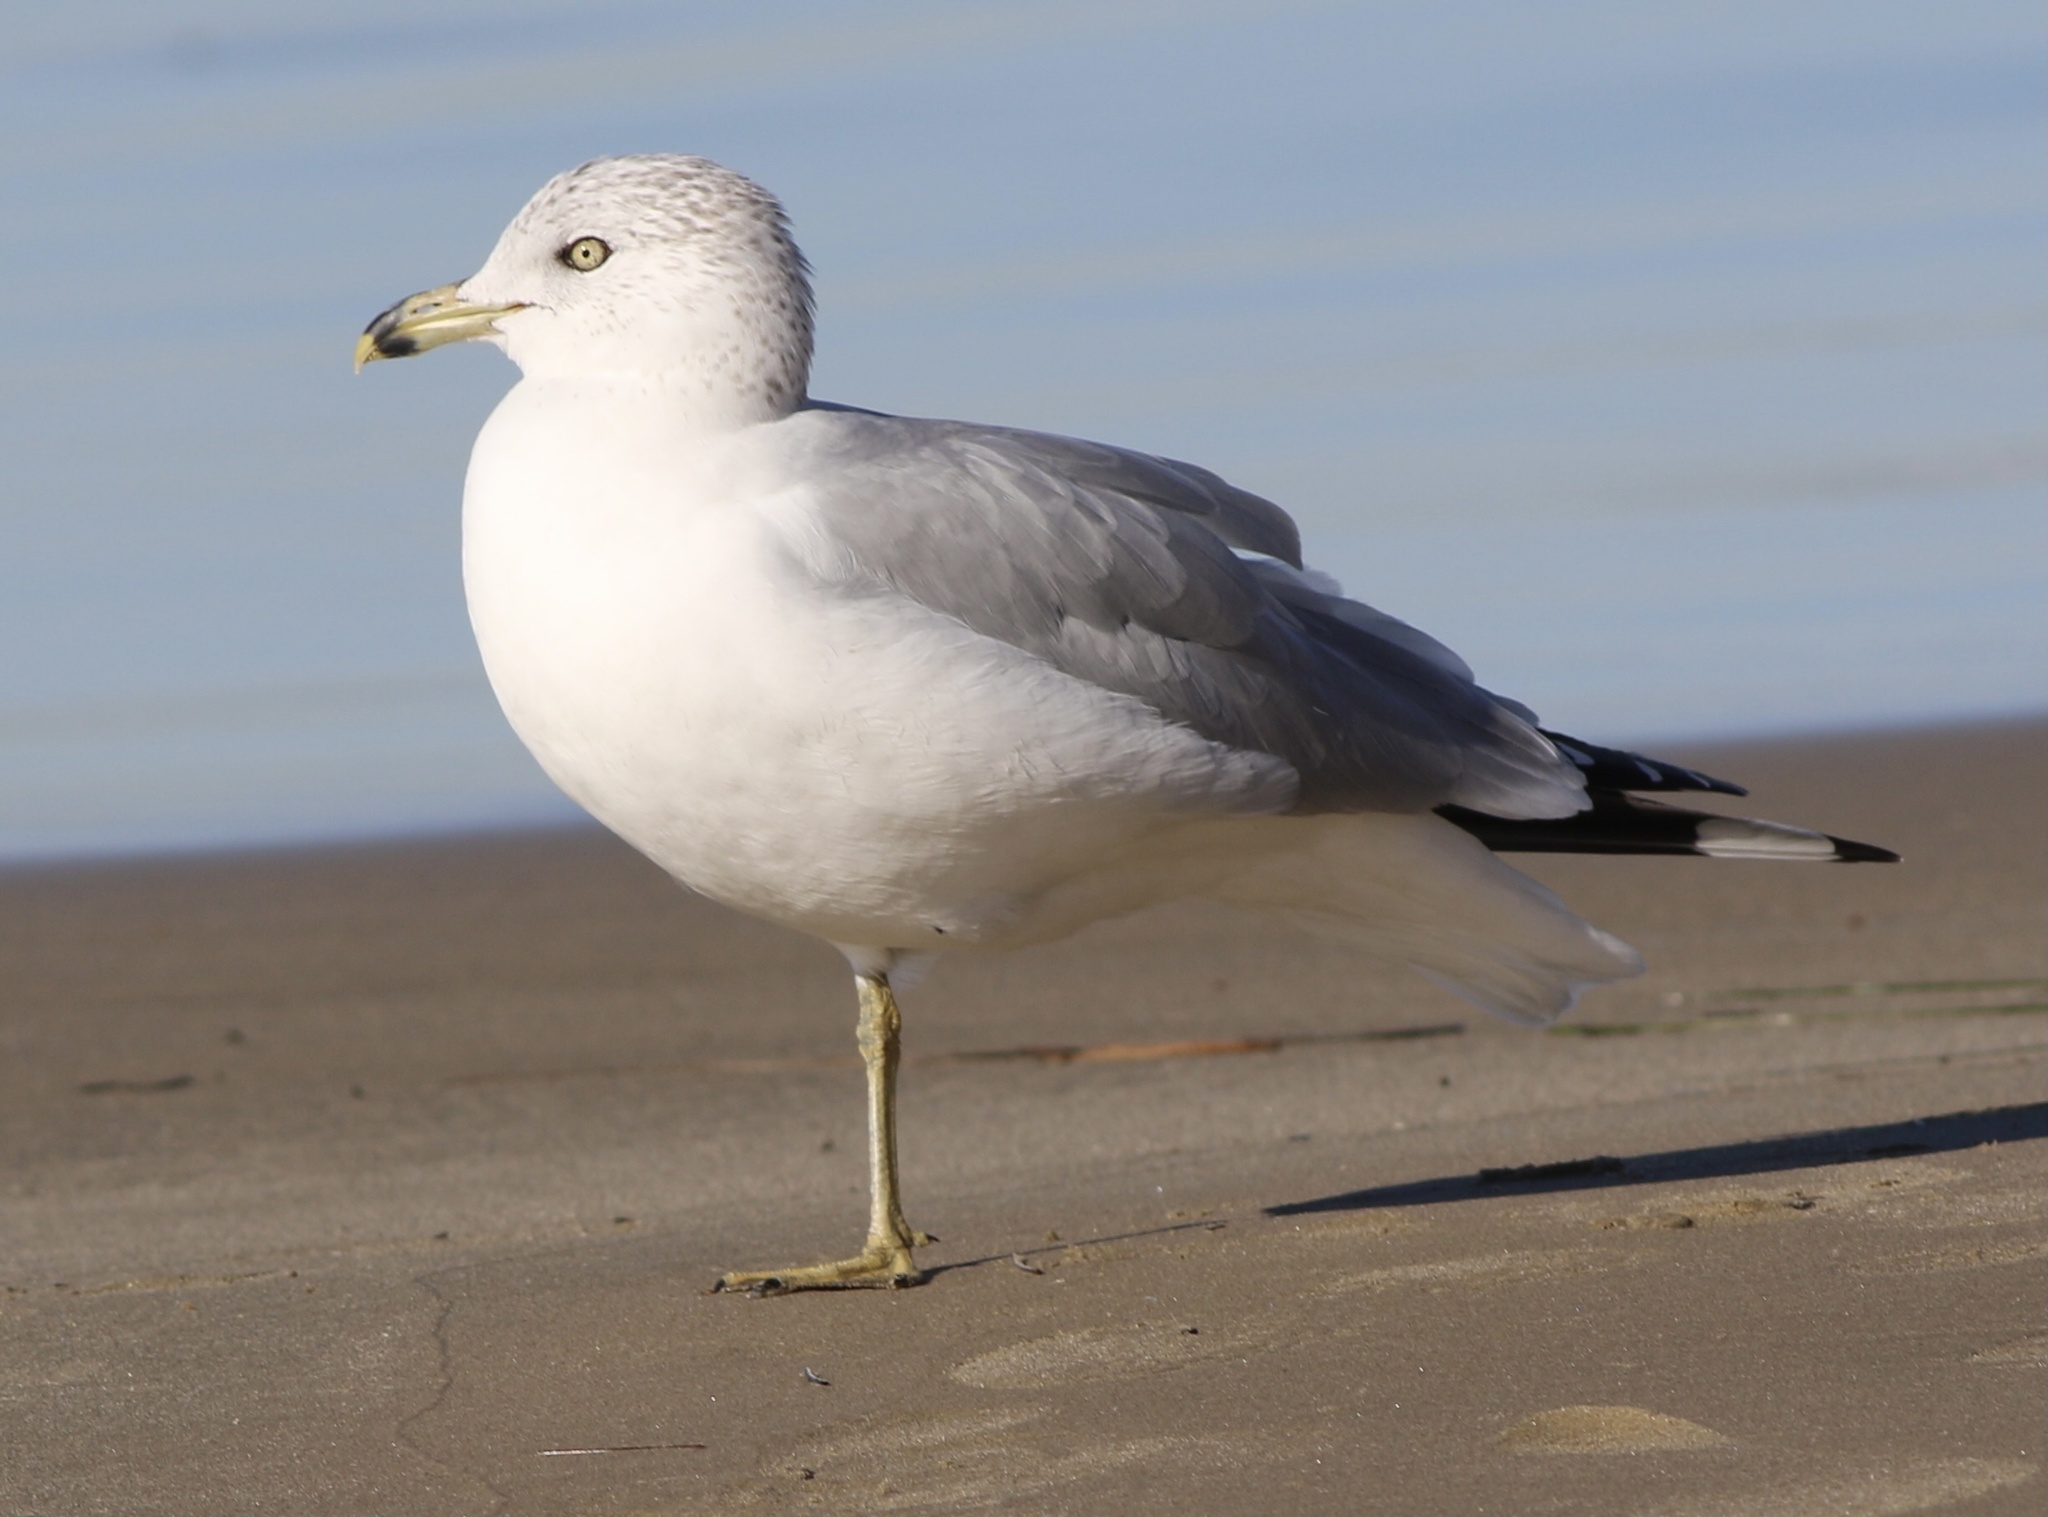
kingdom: Animalia
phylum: Chordata
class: Aves
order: Charadriiformes
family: Laridae
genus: Larus
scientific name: Larus delawarensis
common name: Ring-billed gull
